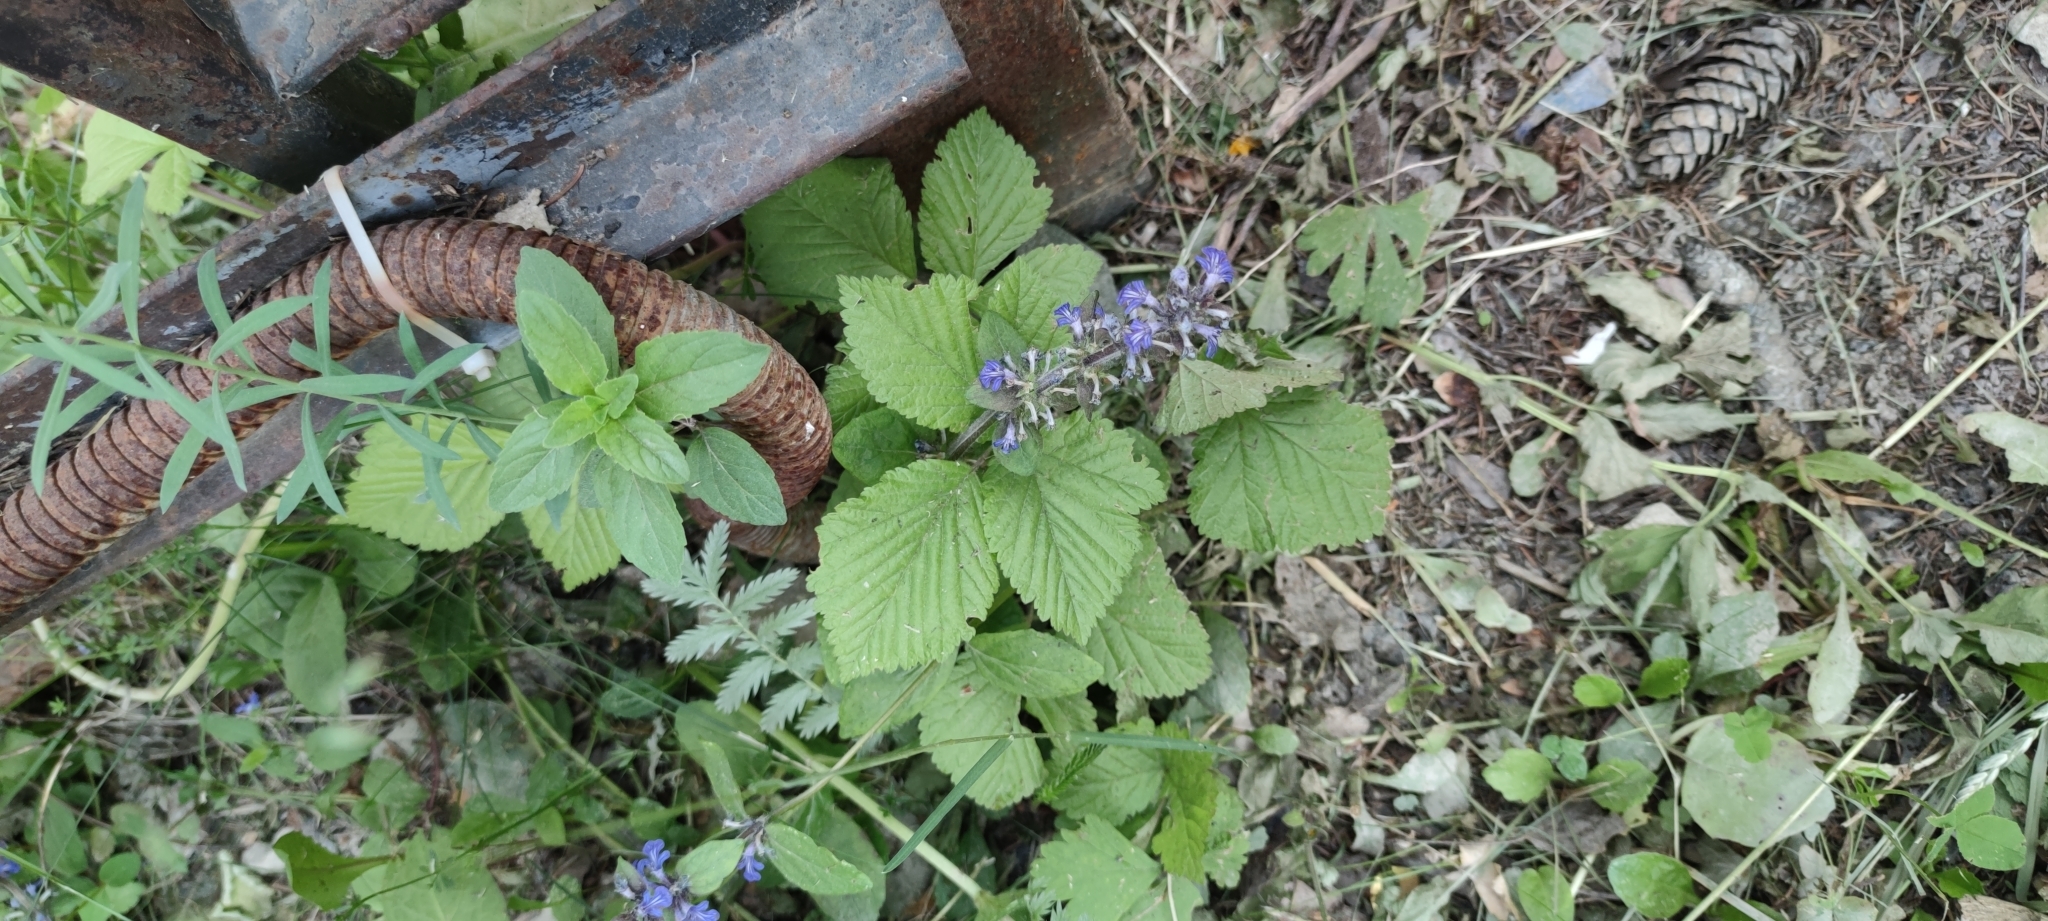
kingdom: Plantae
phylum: Tracheophyta
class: Magnoliopsida
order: Lamiales
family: Lamiaceae
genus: Ajuga
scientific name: Ajuga reptans
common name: Bugle
